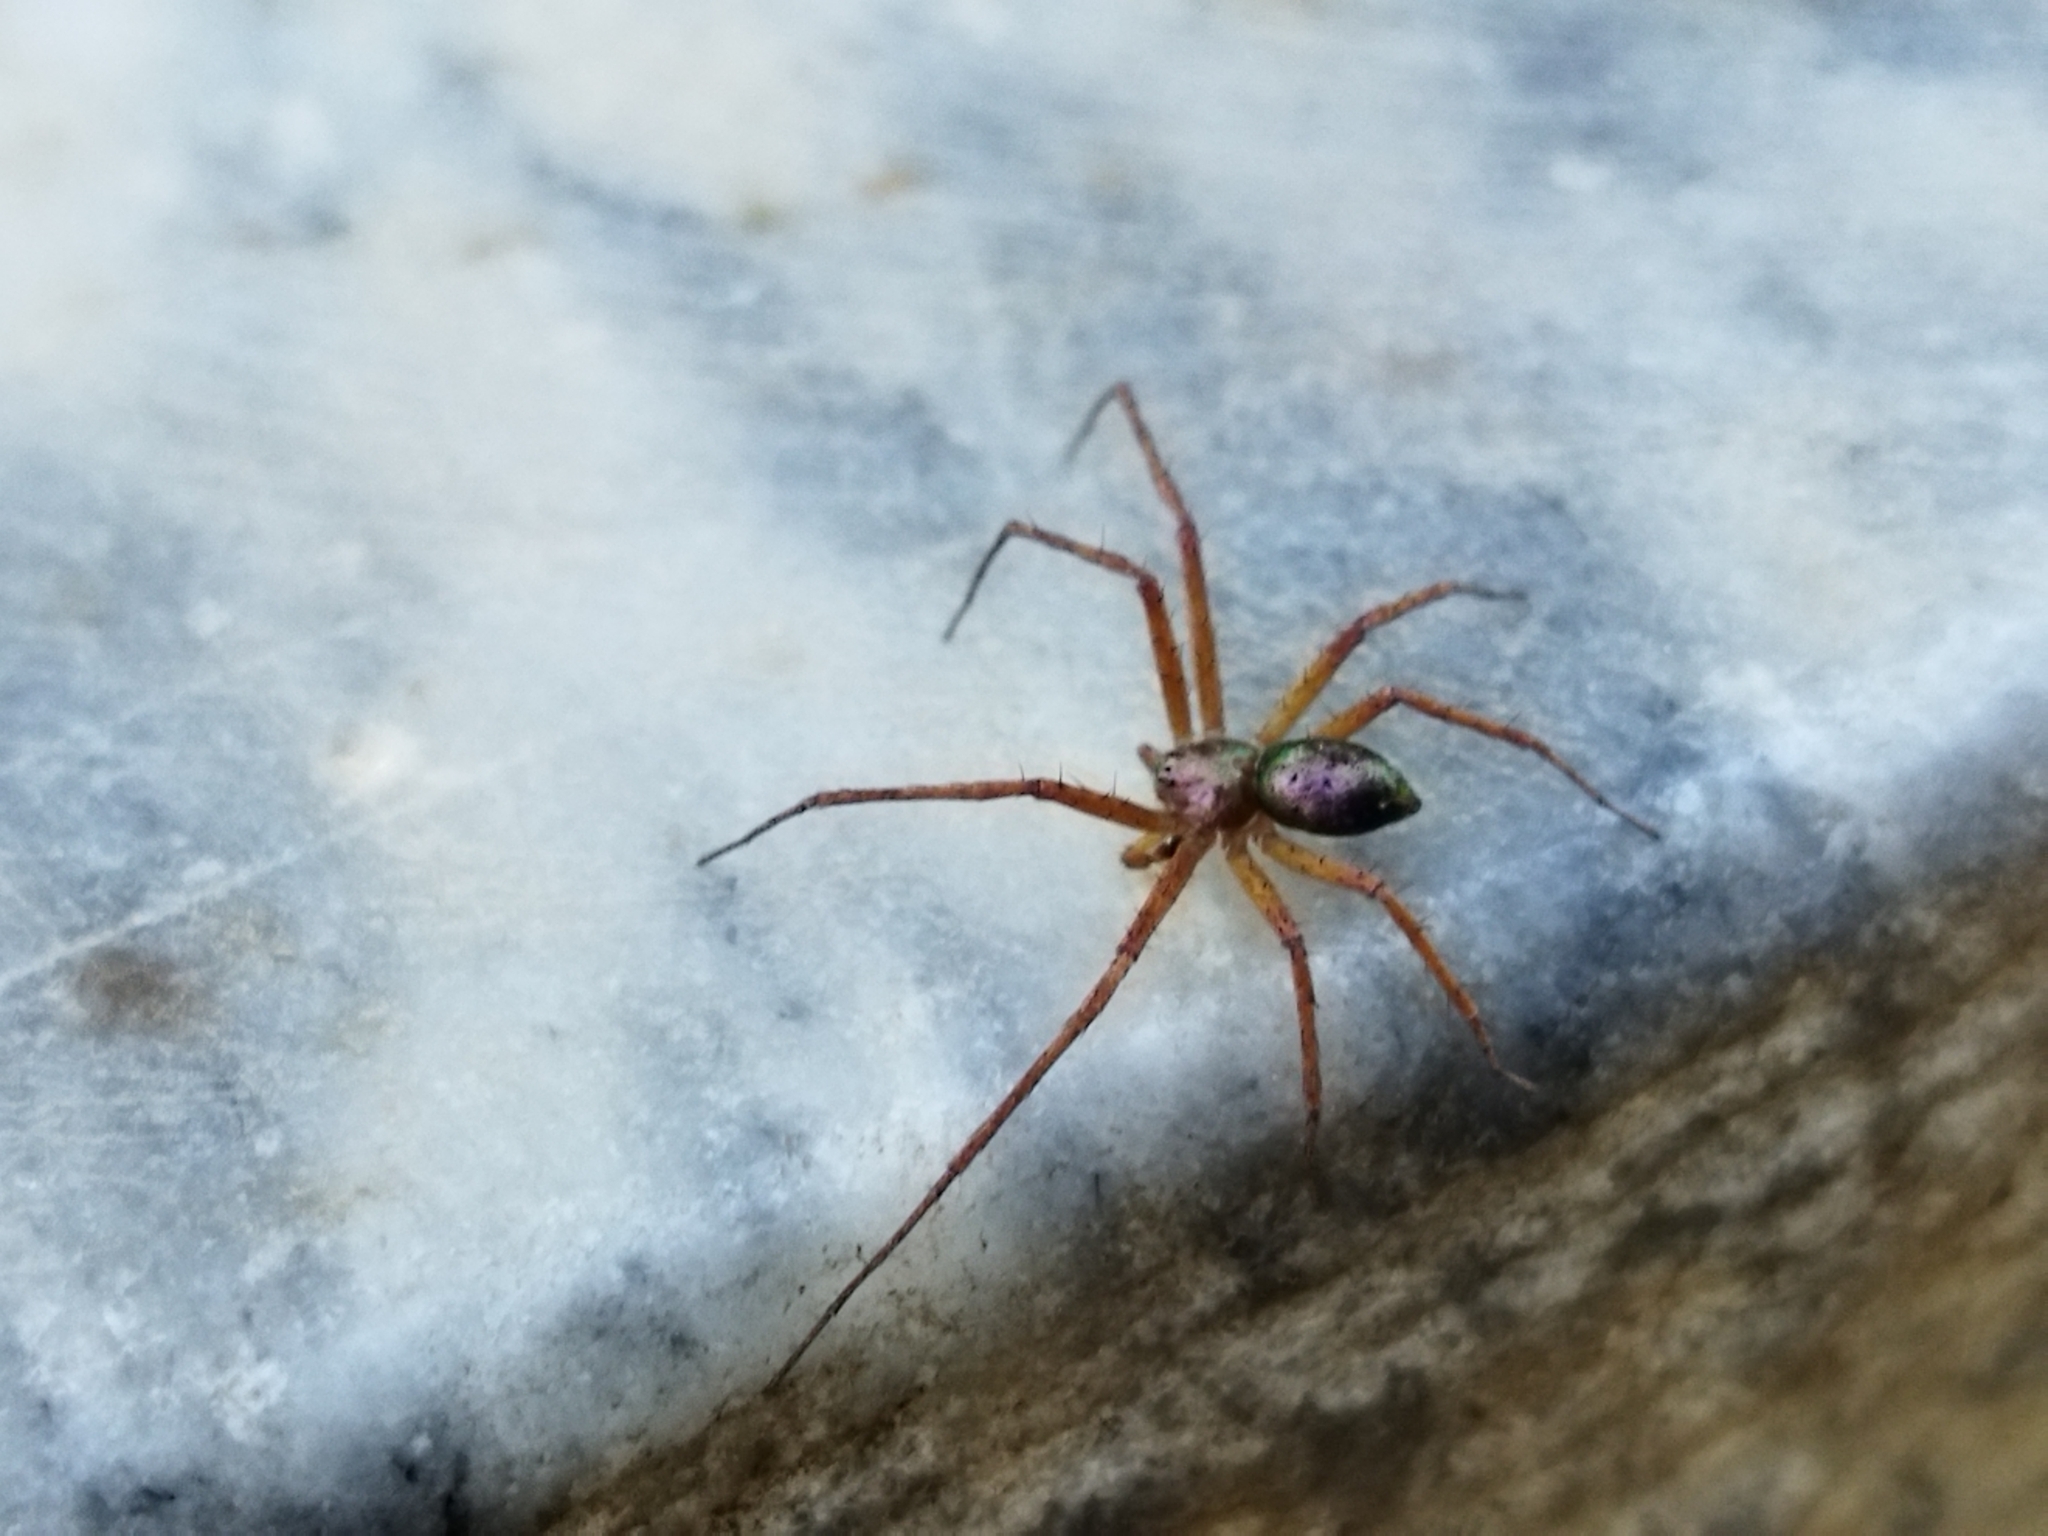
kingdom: Animalia
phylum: Arthropoda
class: Arachnida
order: Araneae
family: Philodromidae
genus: Philodromus
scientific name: Philodromus
